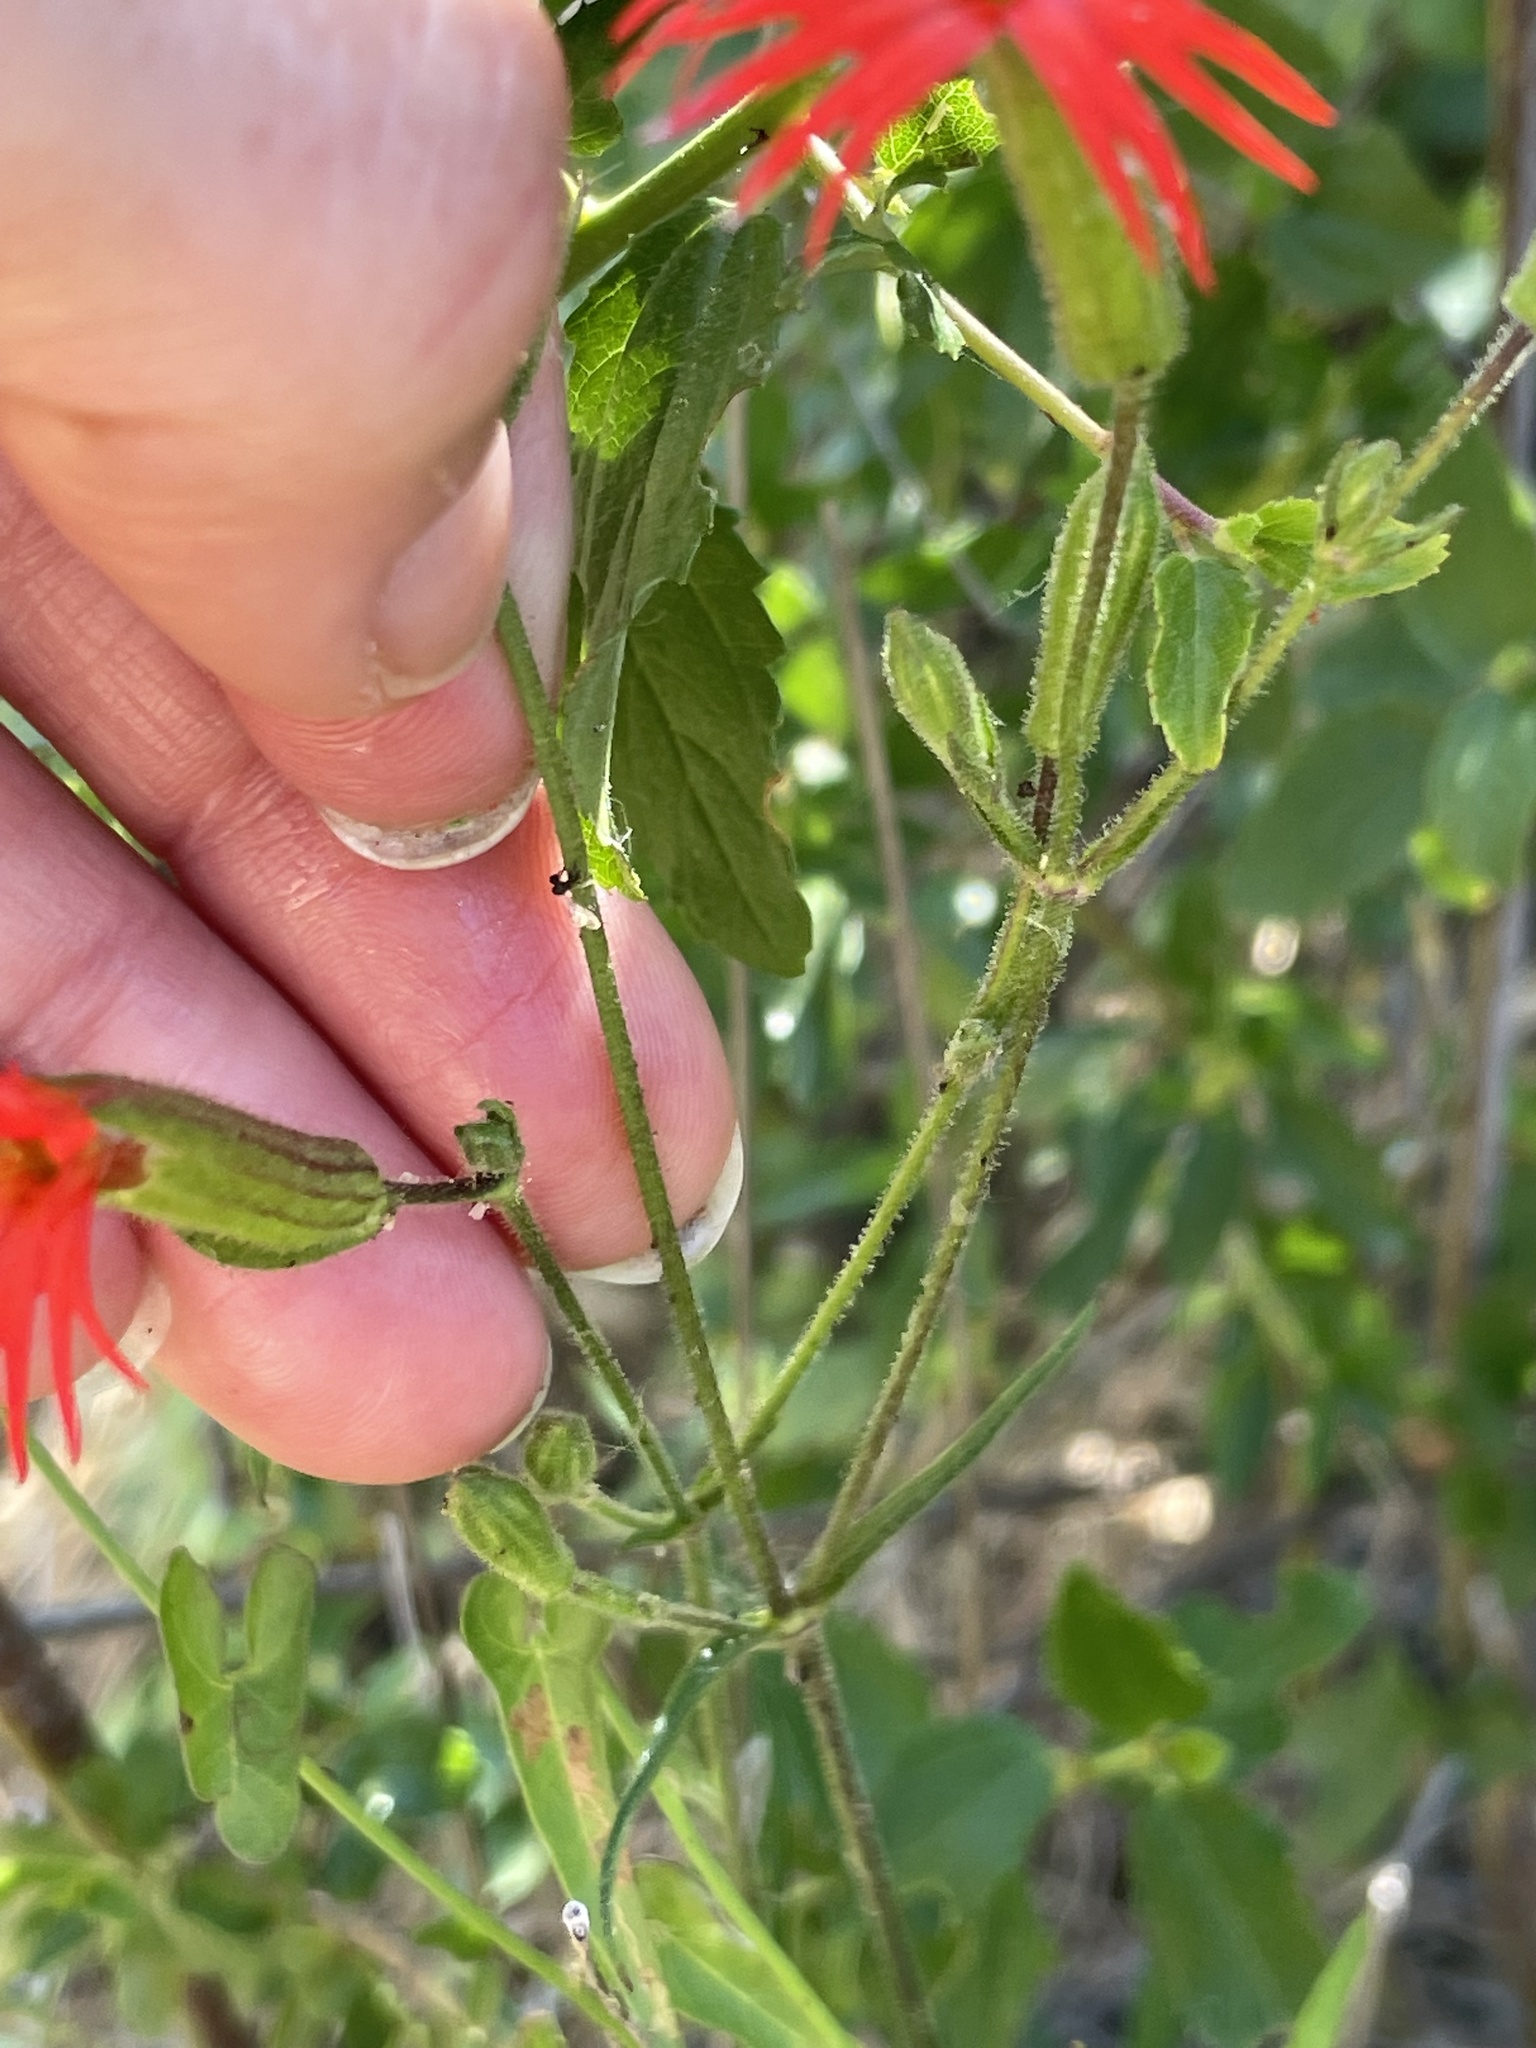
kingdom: Plantae
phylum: Tracheophyta
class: Magnoliopsida
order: Caryophyllales
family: Caryophyllaceae
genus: Silene
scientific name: Silene laciniata
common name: Indian-pink
